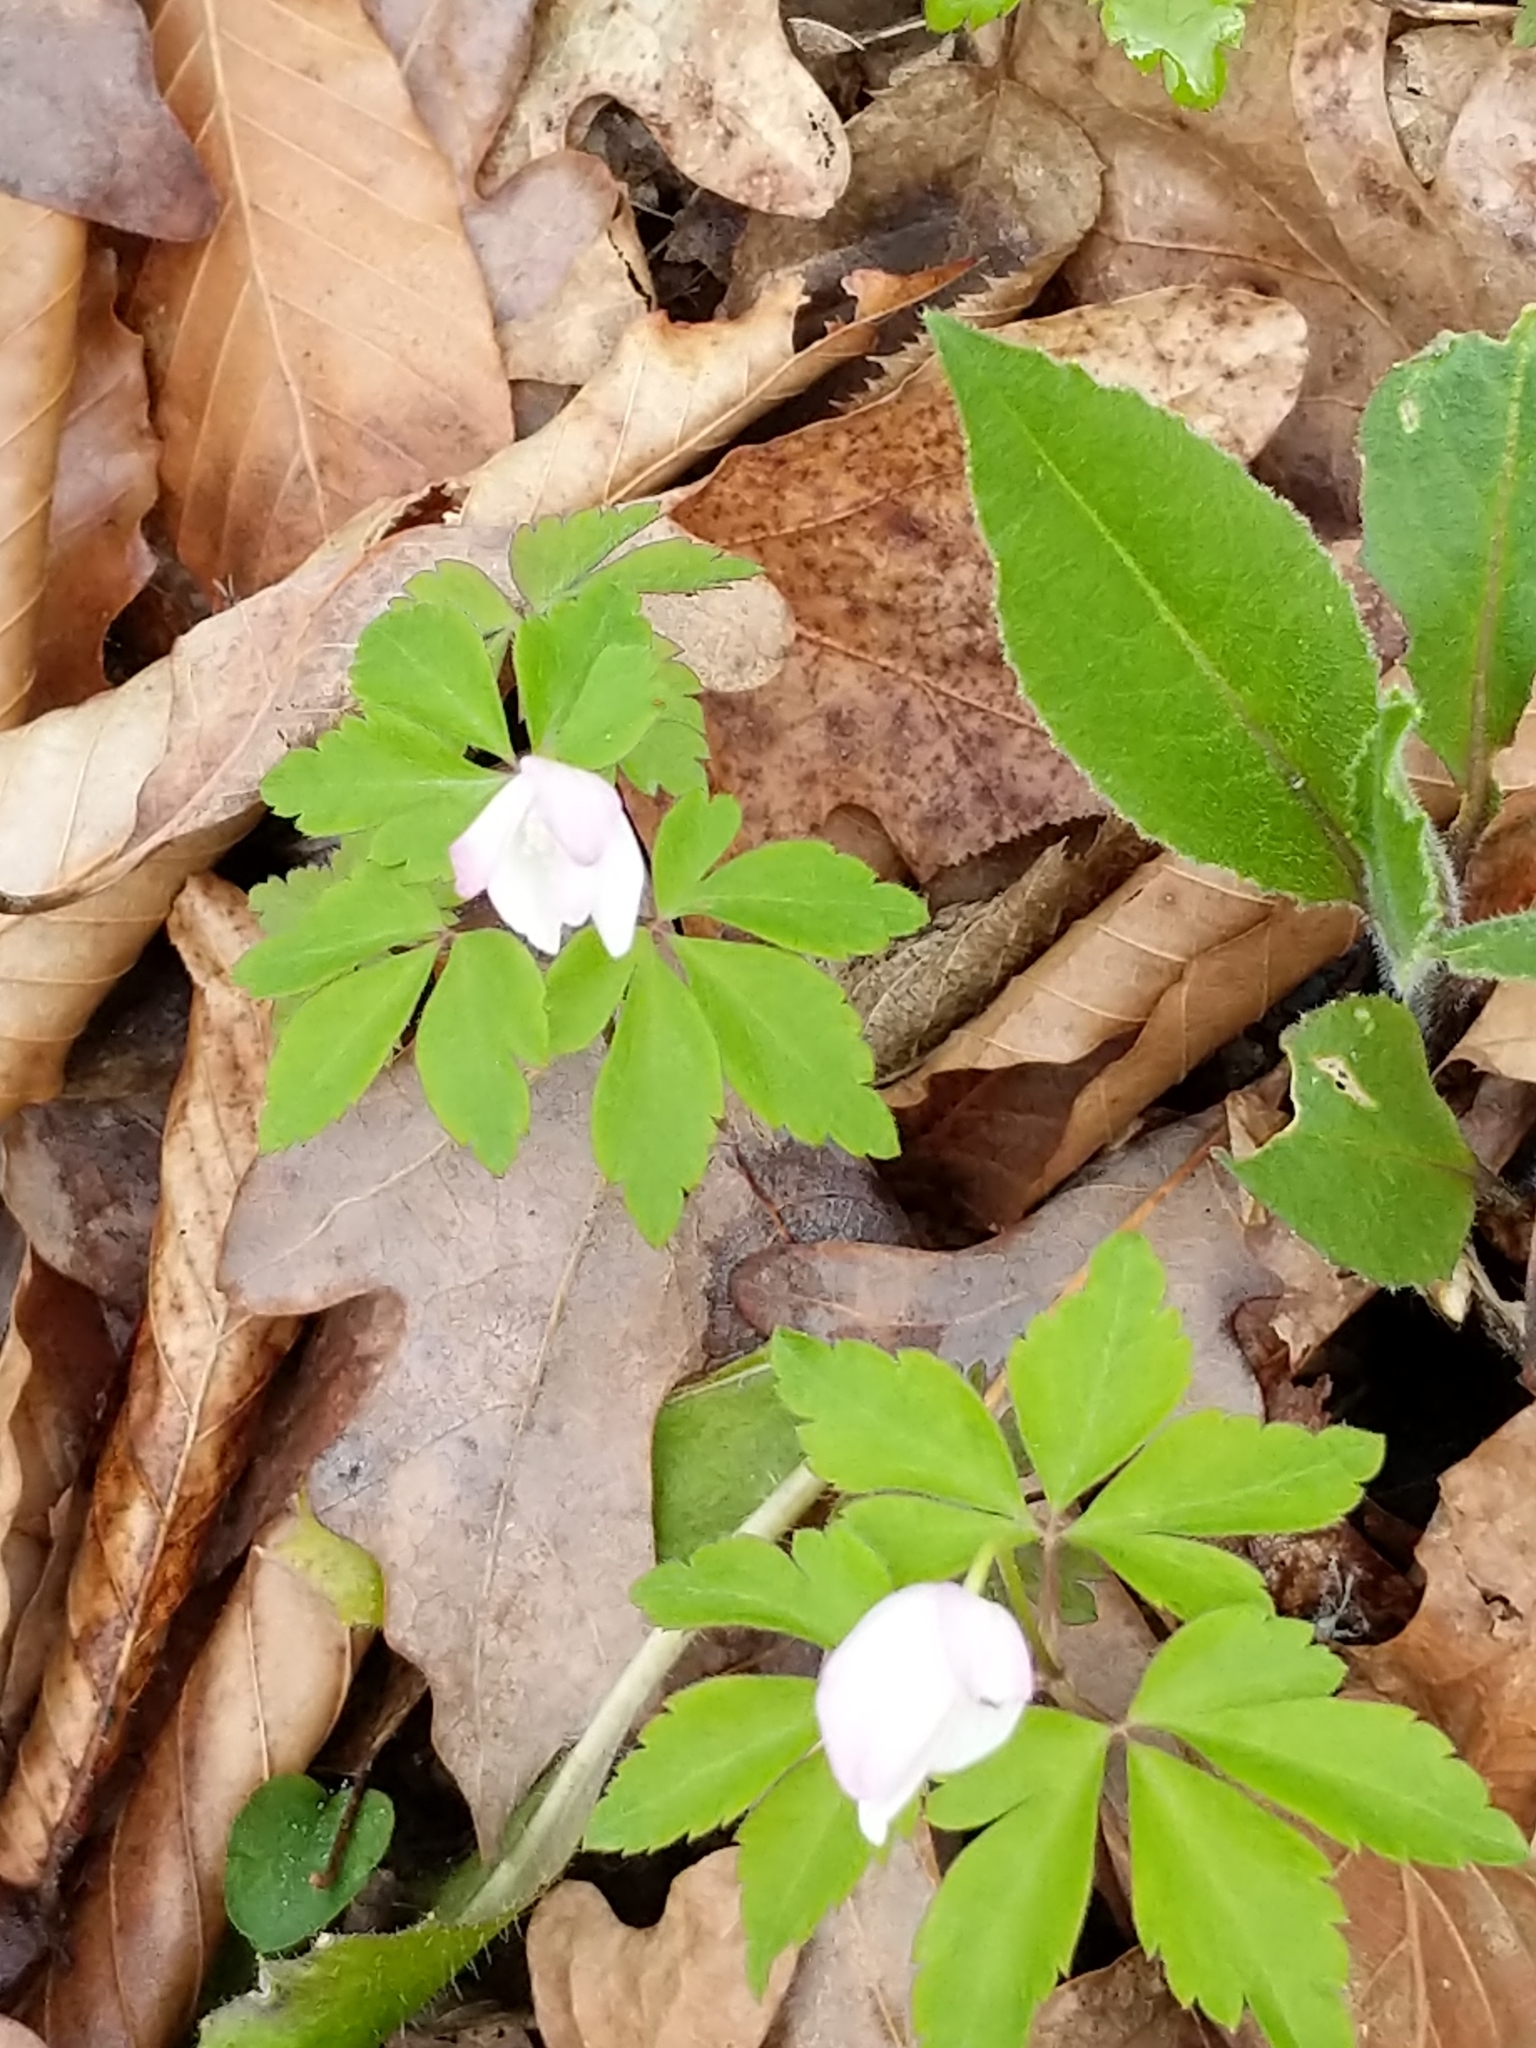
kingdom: Plantae
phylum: Tracheophyta
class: Magnoliopsida
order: Ranunculales
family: Ranunculaceae
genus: Anemone
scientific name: Anemone quinquefolia
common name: Wood anemone
